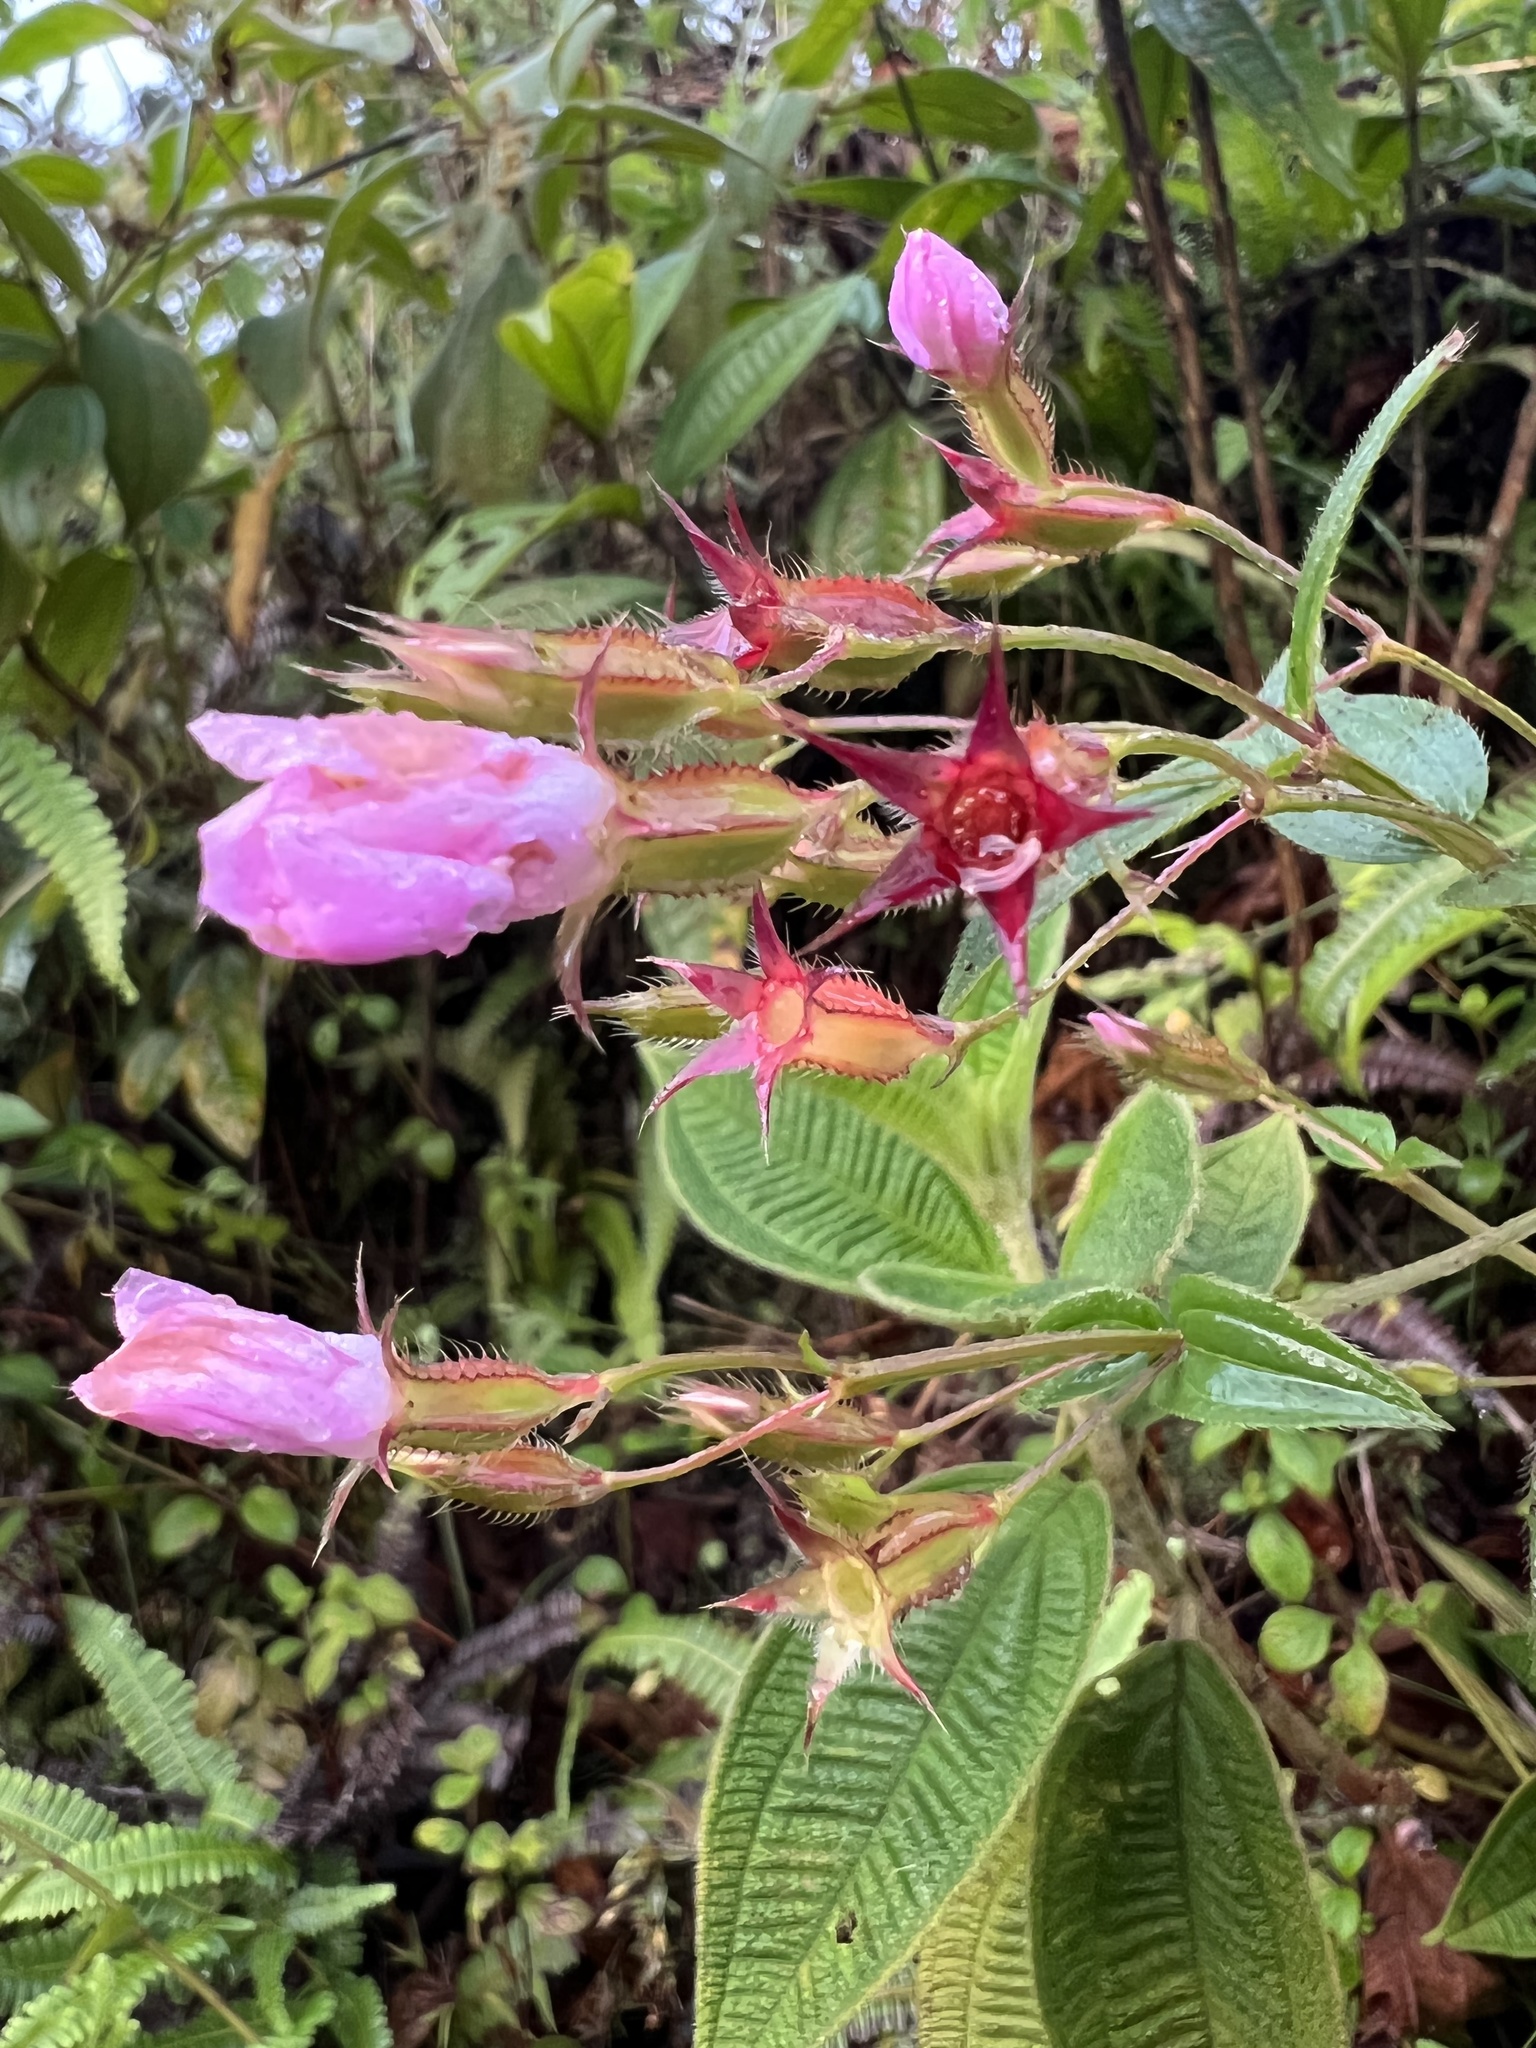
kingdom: Plantae
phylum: Tracheophyta
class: Magnoliopsida
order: Myrtales
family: Melastomataceae
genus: Pterogastra
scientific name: Pterogastra divaricata
